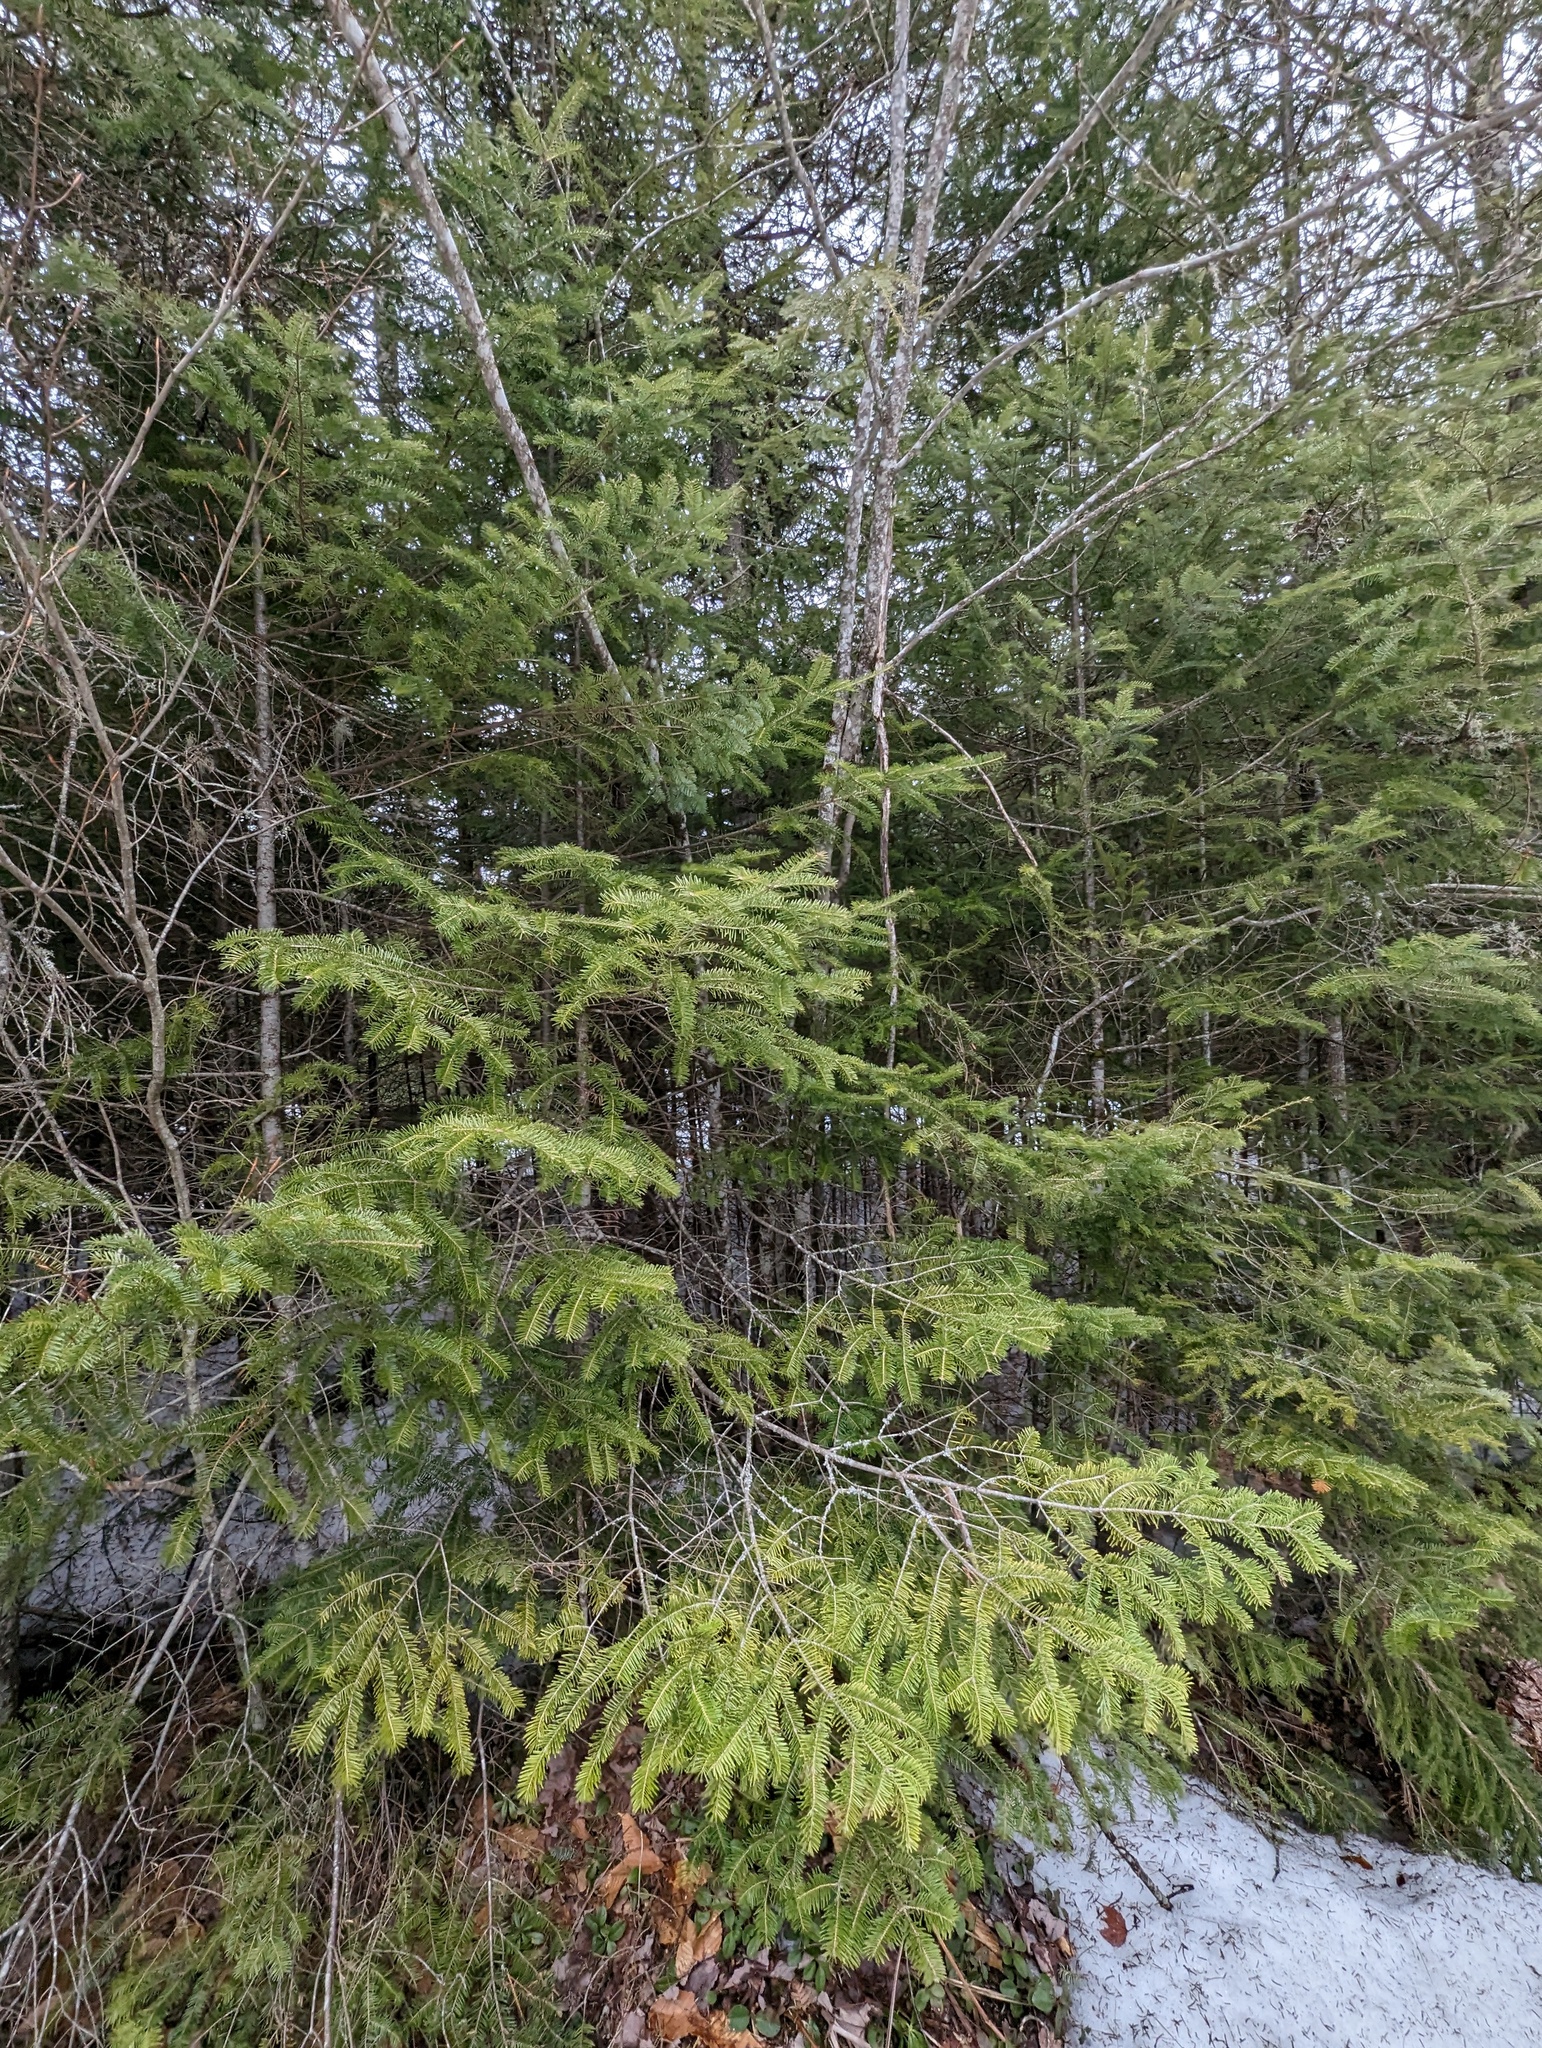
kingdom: Plantae
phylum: Tracheophyta
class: Pinopsida
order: Pinales
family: Pinaceae
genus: Abies
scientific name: Abies balsamea
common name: Balsam fir
